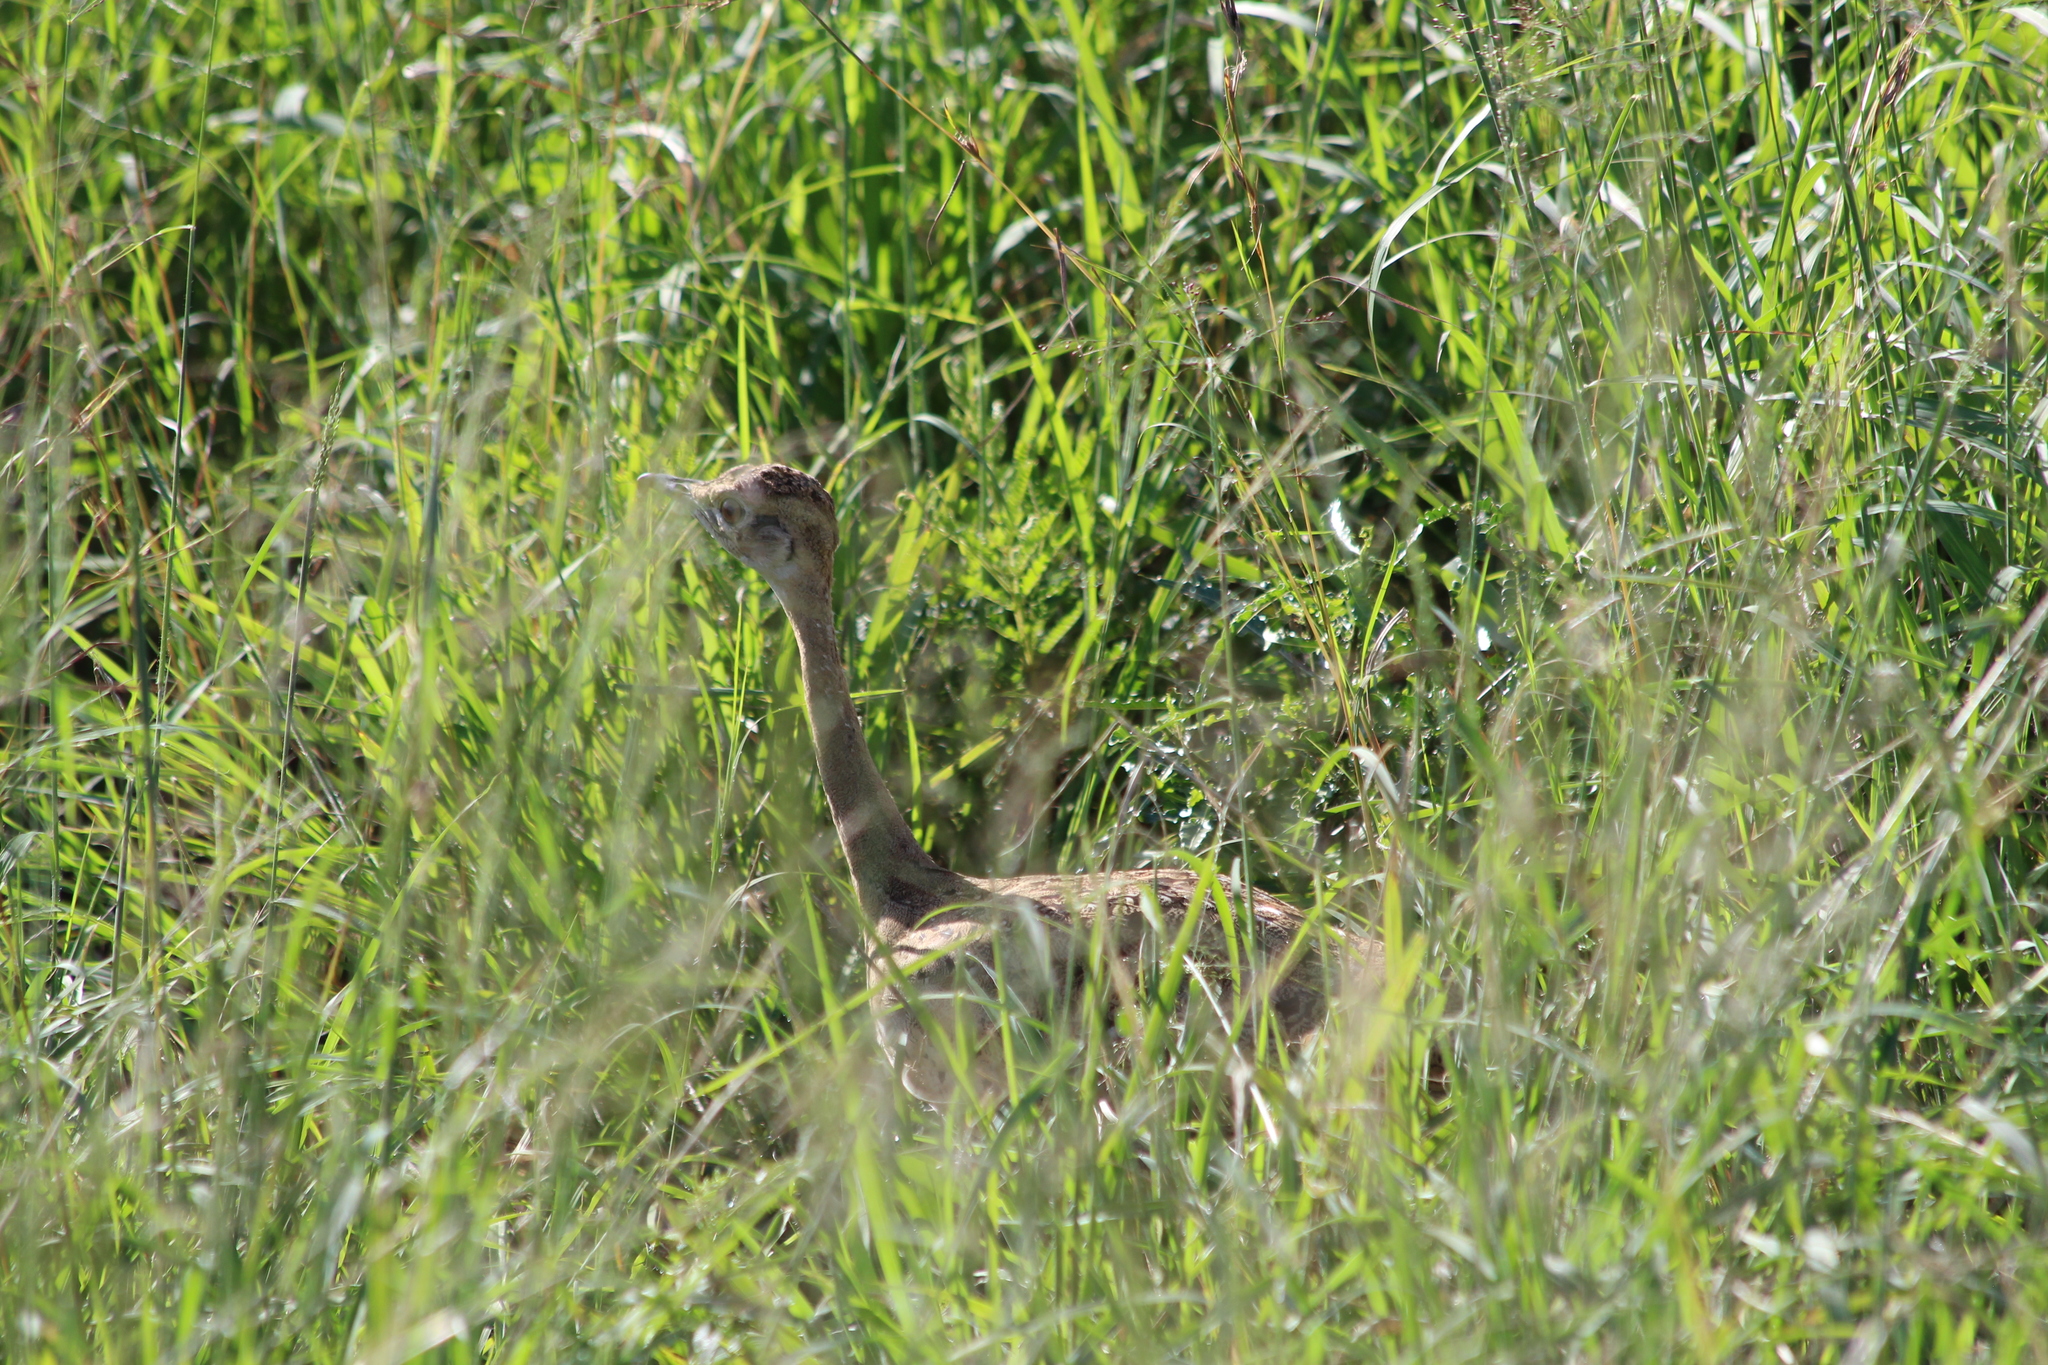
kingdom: Animalia
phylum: Chordata
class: Aves
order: Otidiformes
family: Otididae
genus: Lissotis
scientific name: Lissotis melanogaster
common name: Black-bellied bustard
